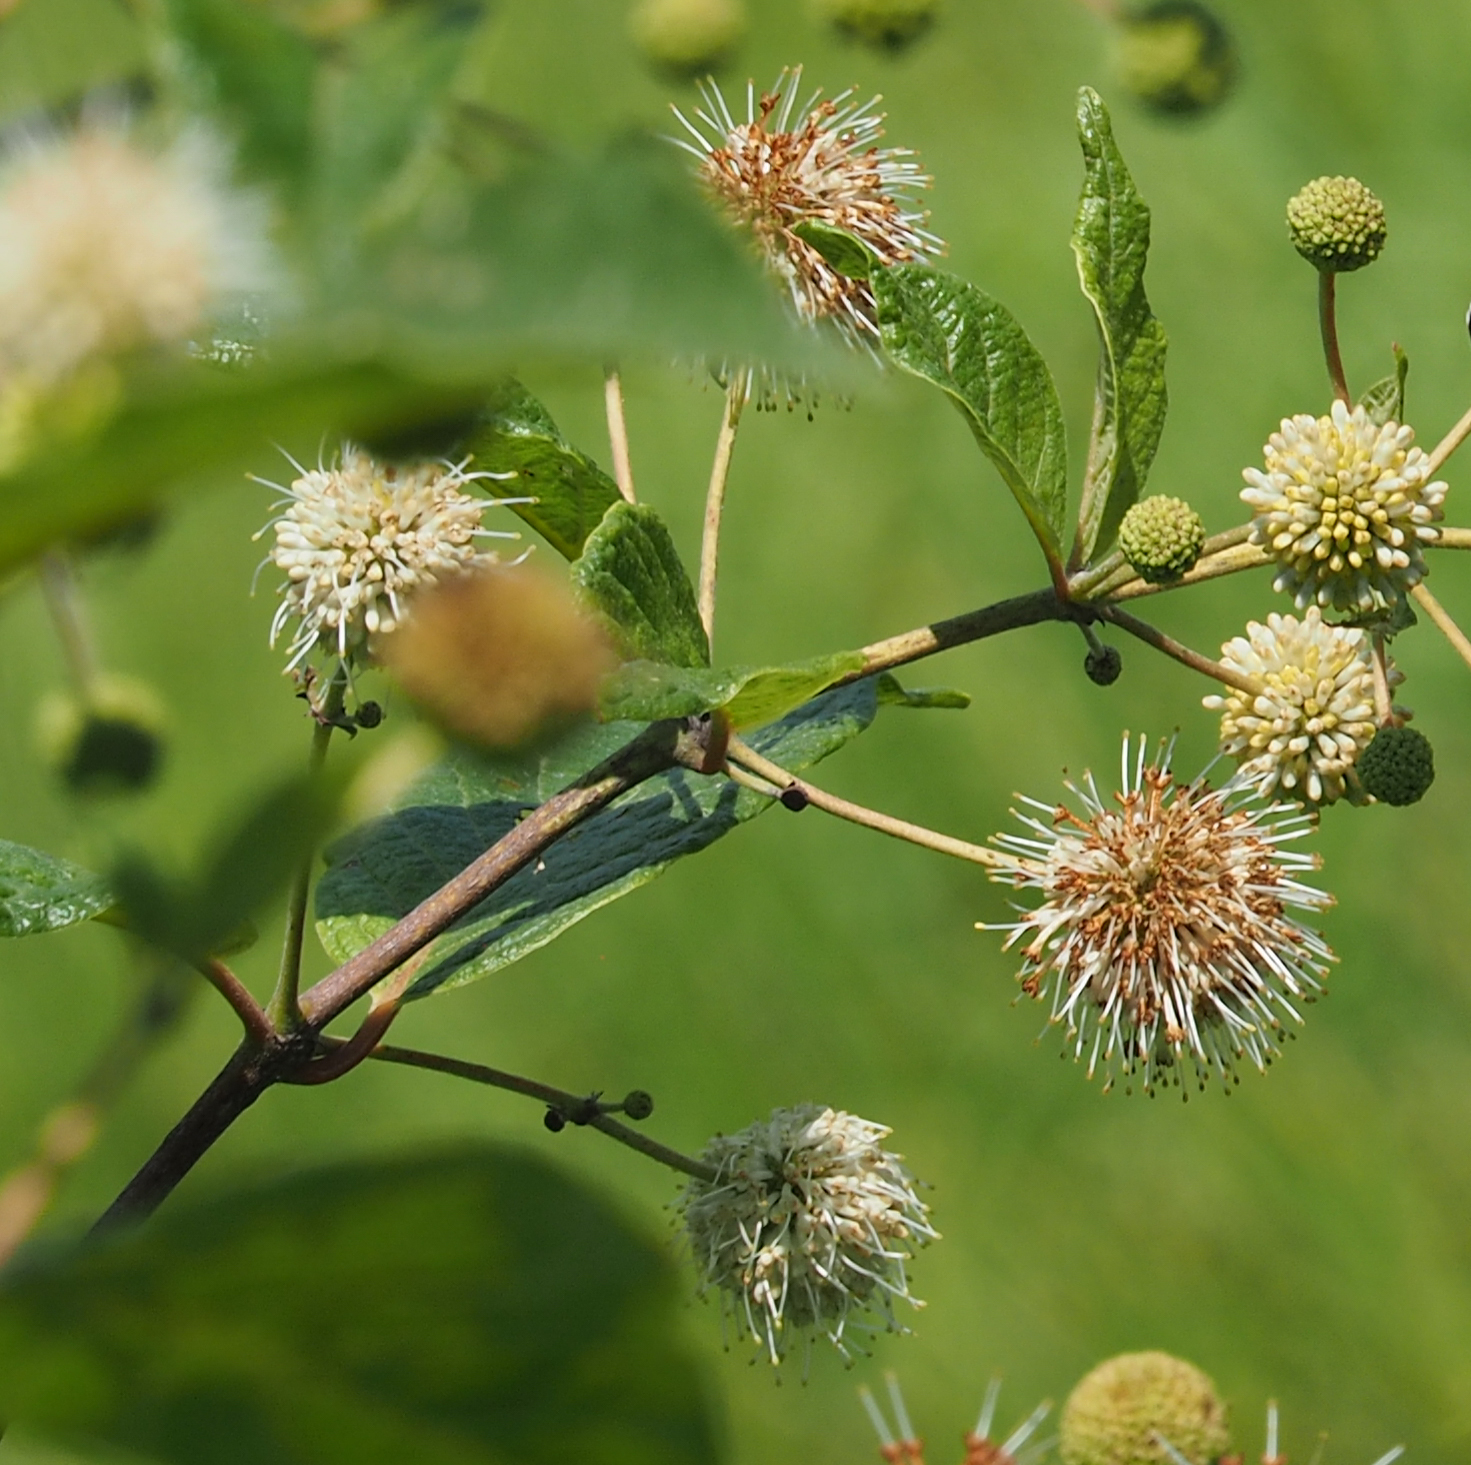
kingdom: Plantae
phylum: Tracheophyta
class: Magnoliopsida
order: Gentianales
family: Rubiaceae
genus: Cephalanthus
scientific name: Cephalanthus occidentalis
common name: Button-willow
